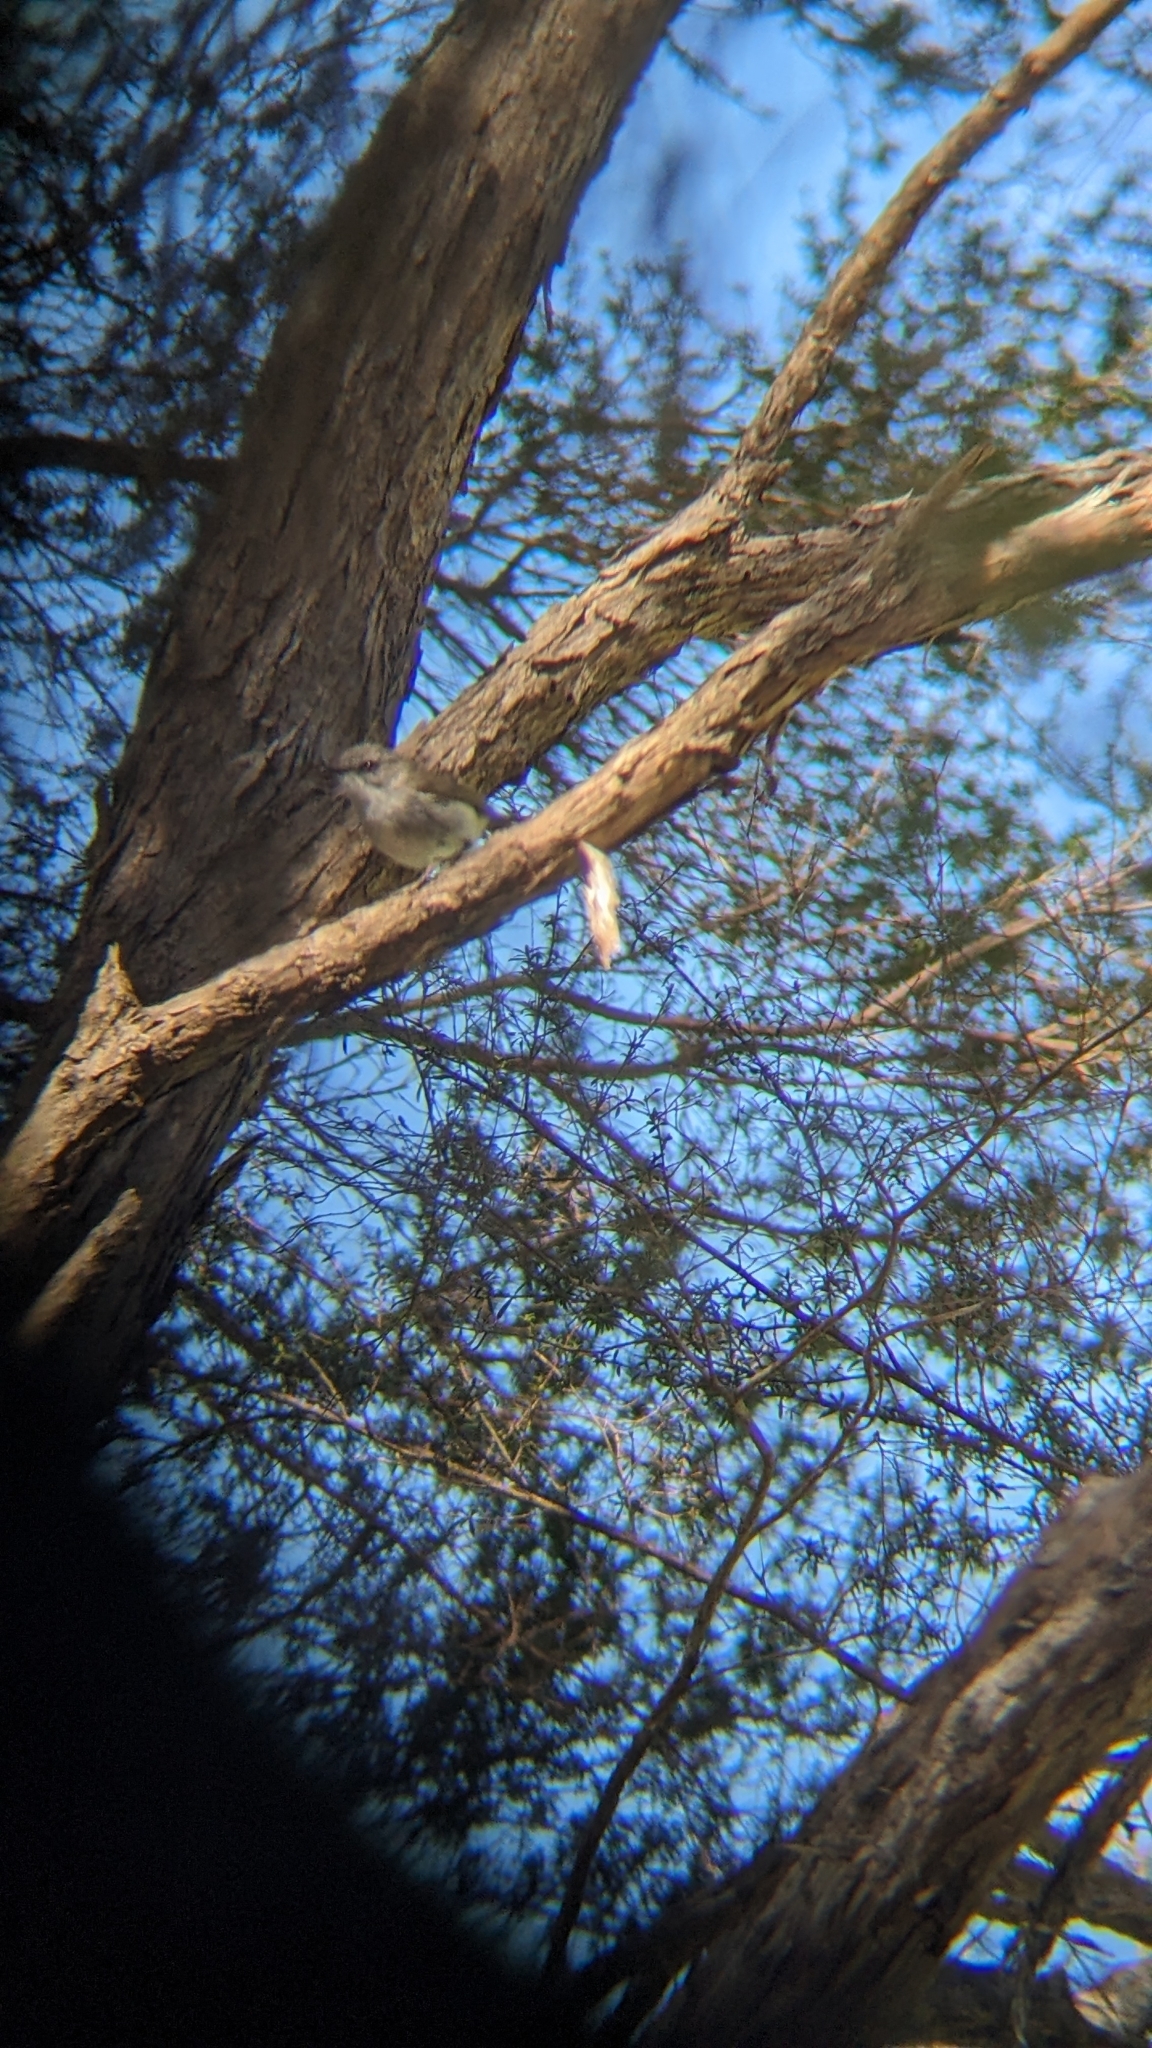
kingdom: Animalia
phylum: Chordata
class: Aves
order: Passeriformes
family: Acanthizidae
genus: Gerygone
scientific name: Gerygone igata
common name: Grey gerygone
